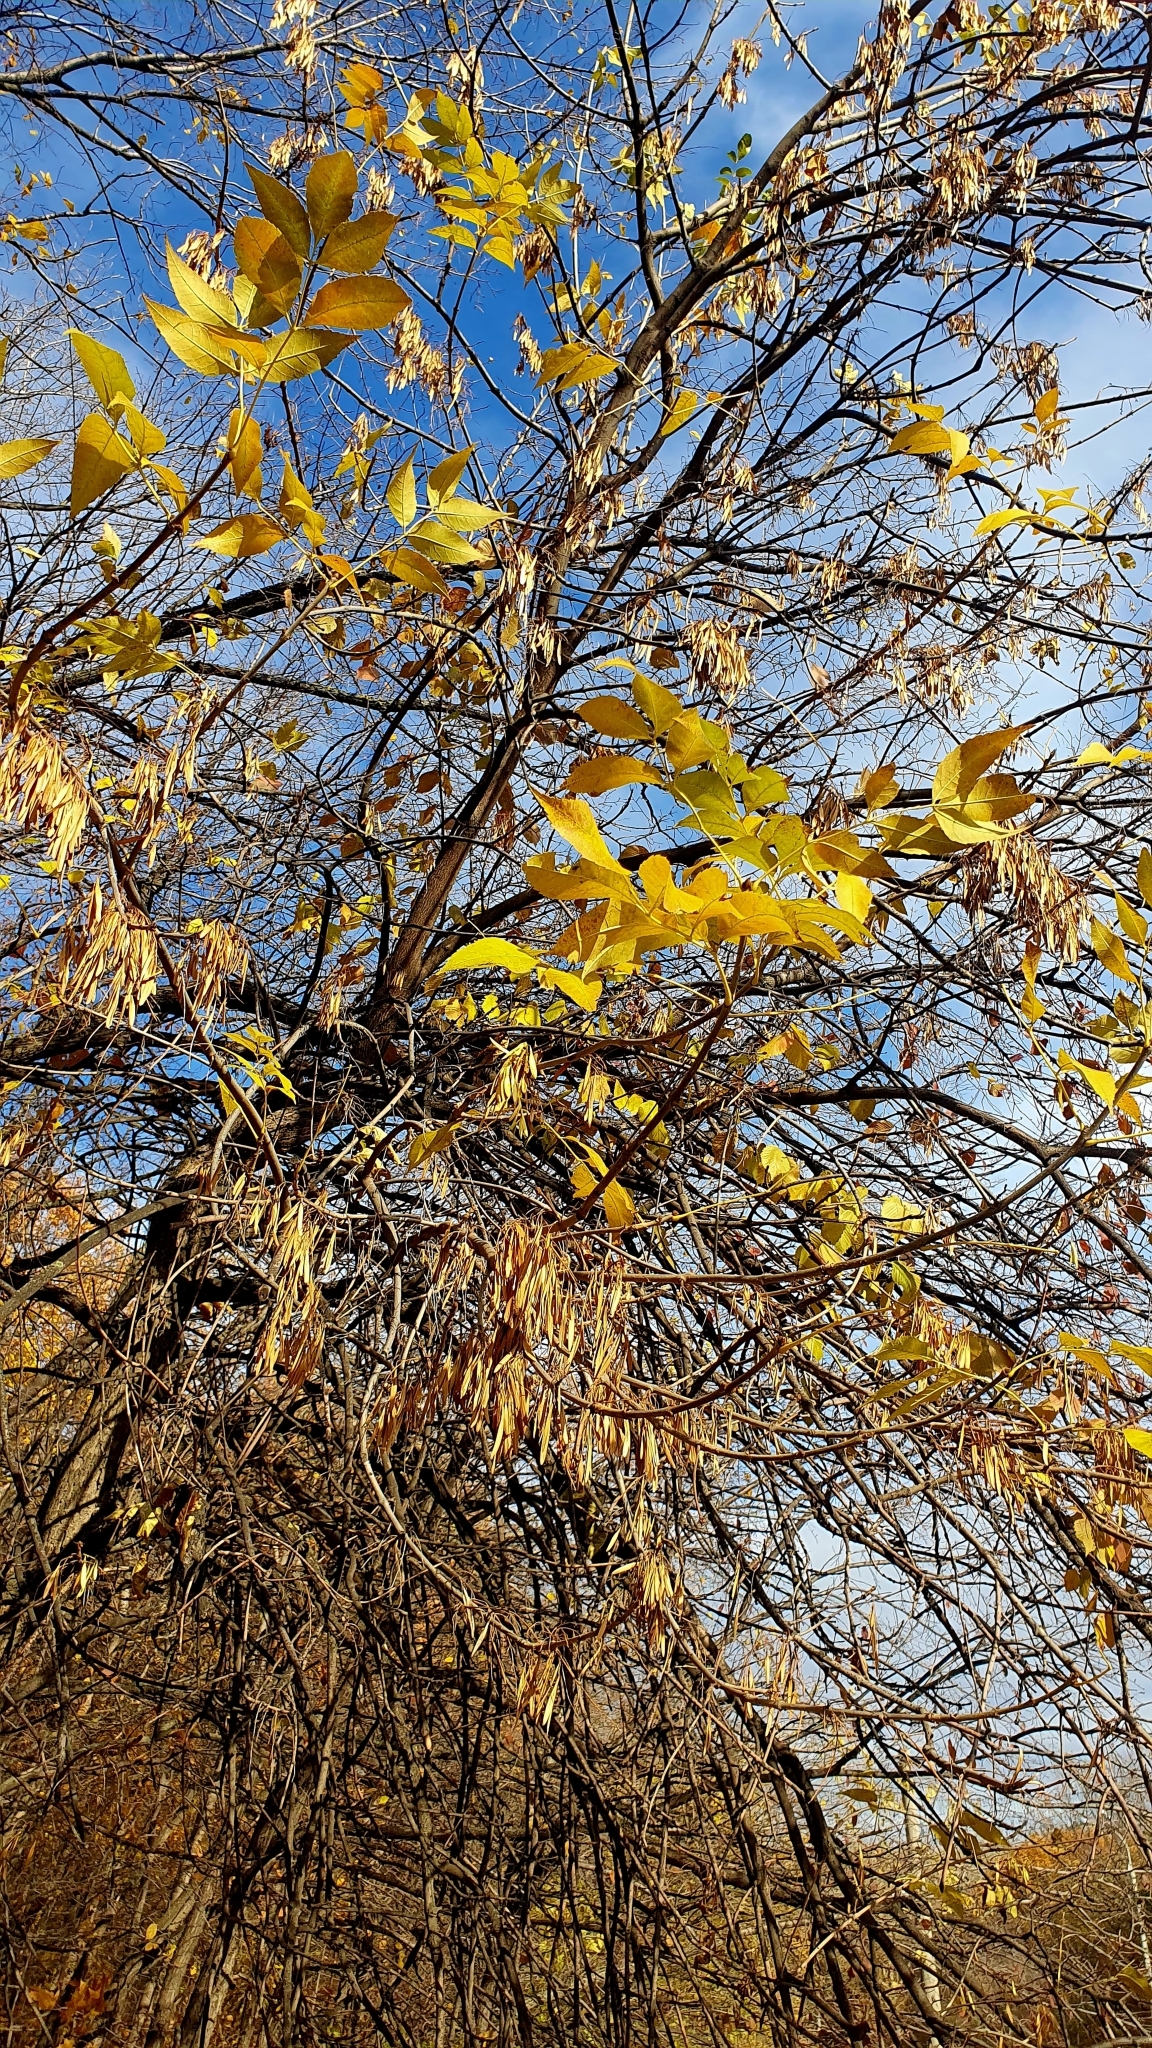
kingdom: Plantae
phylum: Tracheophyta
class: Magnoliopsida
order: Lamiales
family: Oleaceae
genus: Fraxinus
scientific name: Fraxinus pennsylvanica
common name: Green ash
